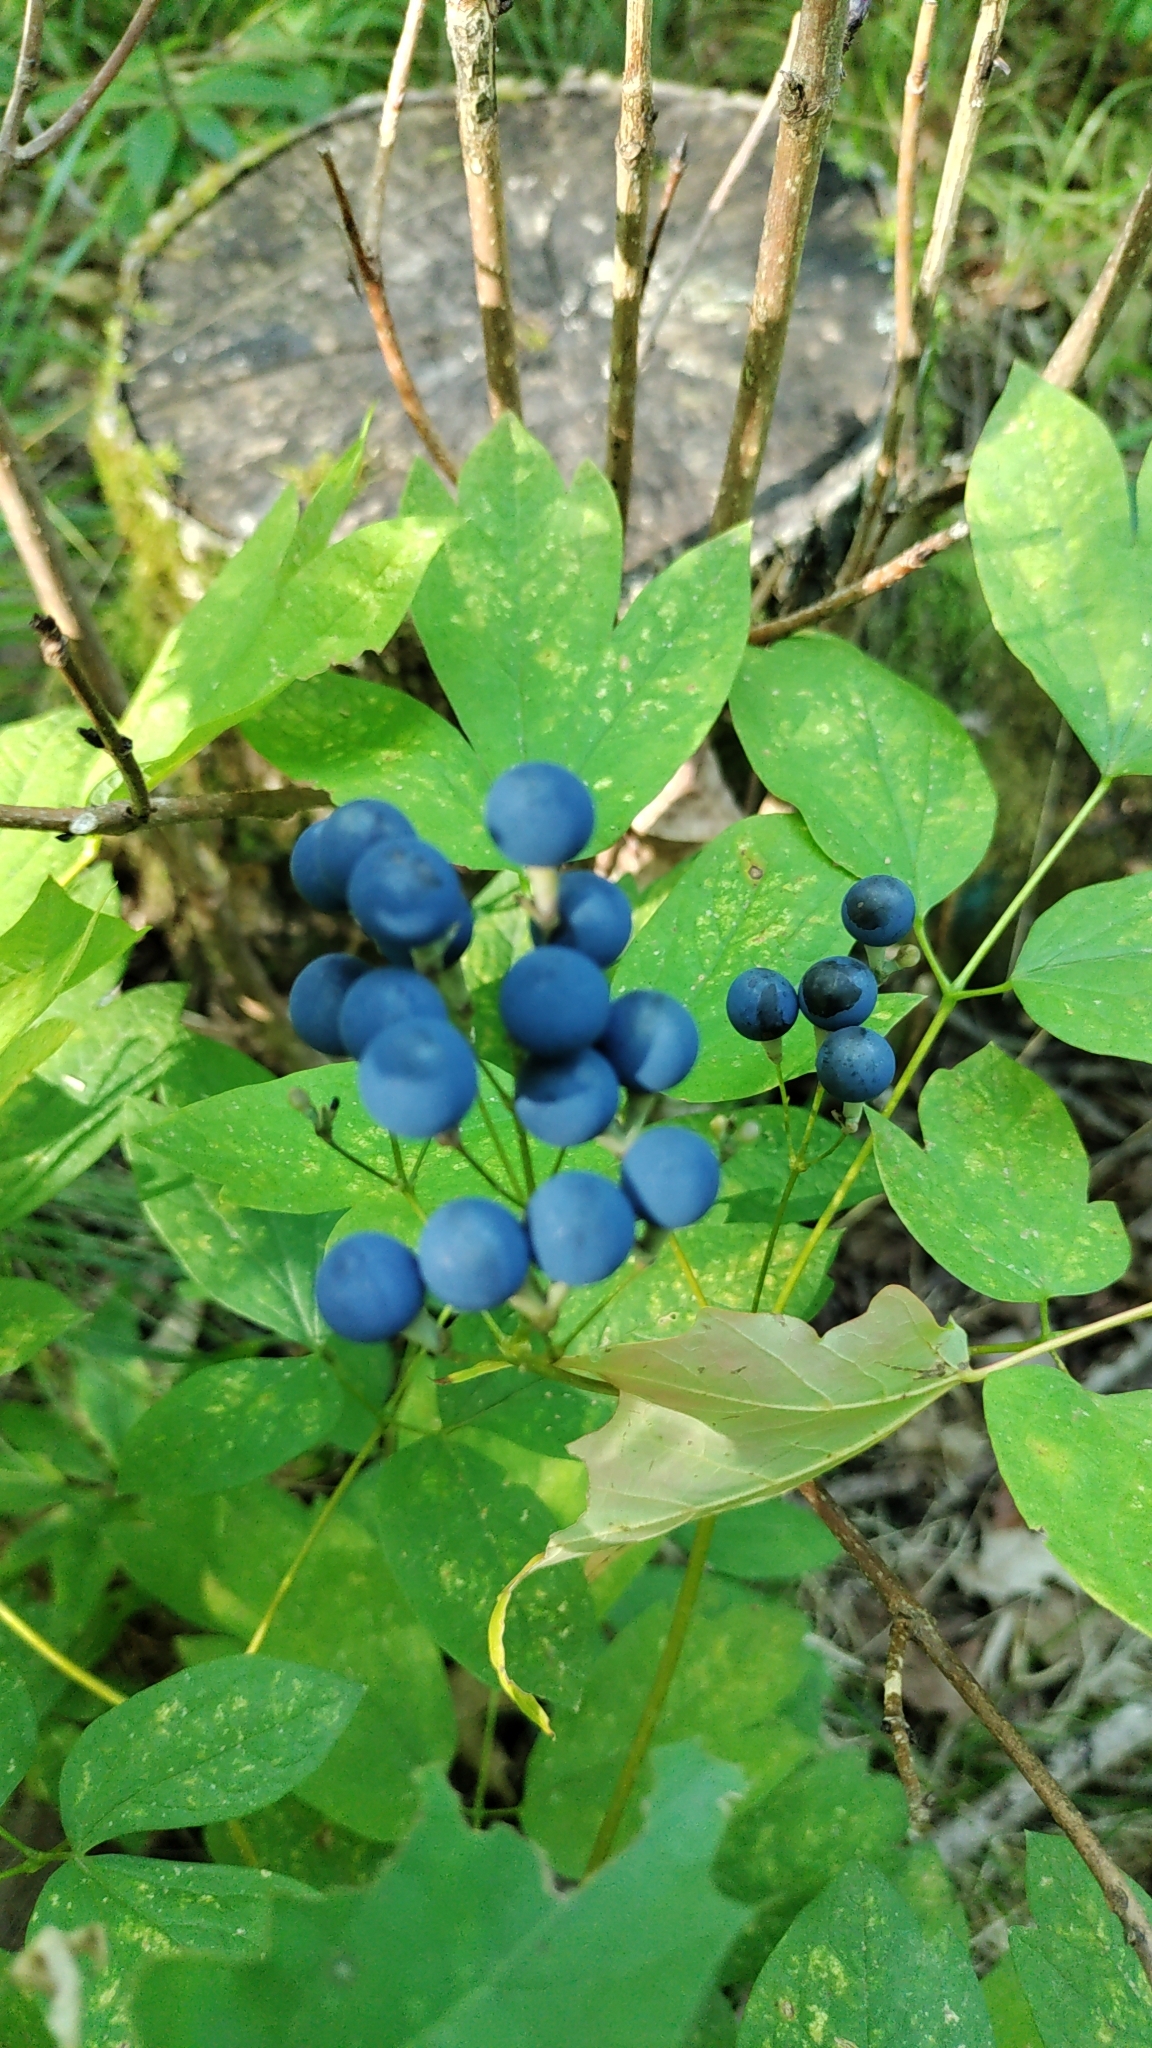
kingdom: Plantae
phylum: Tracheophyta
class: Magnoliopsida
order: Ranunculales
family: Berberidaceae
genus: Caulophyllum
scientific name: Caulophyllum thalictroides
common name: Blue cohosh
